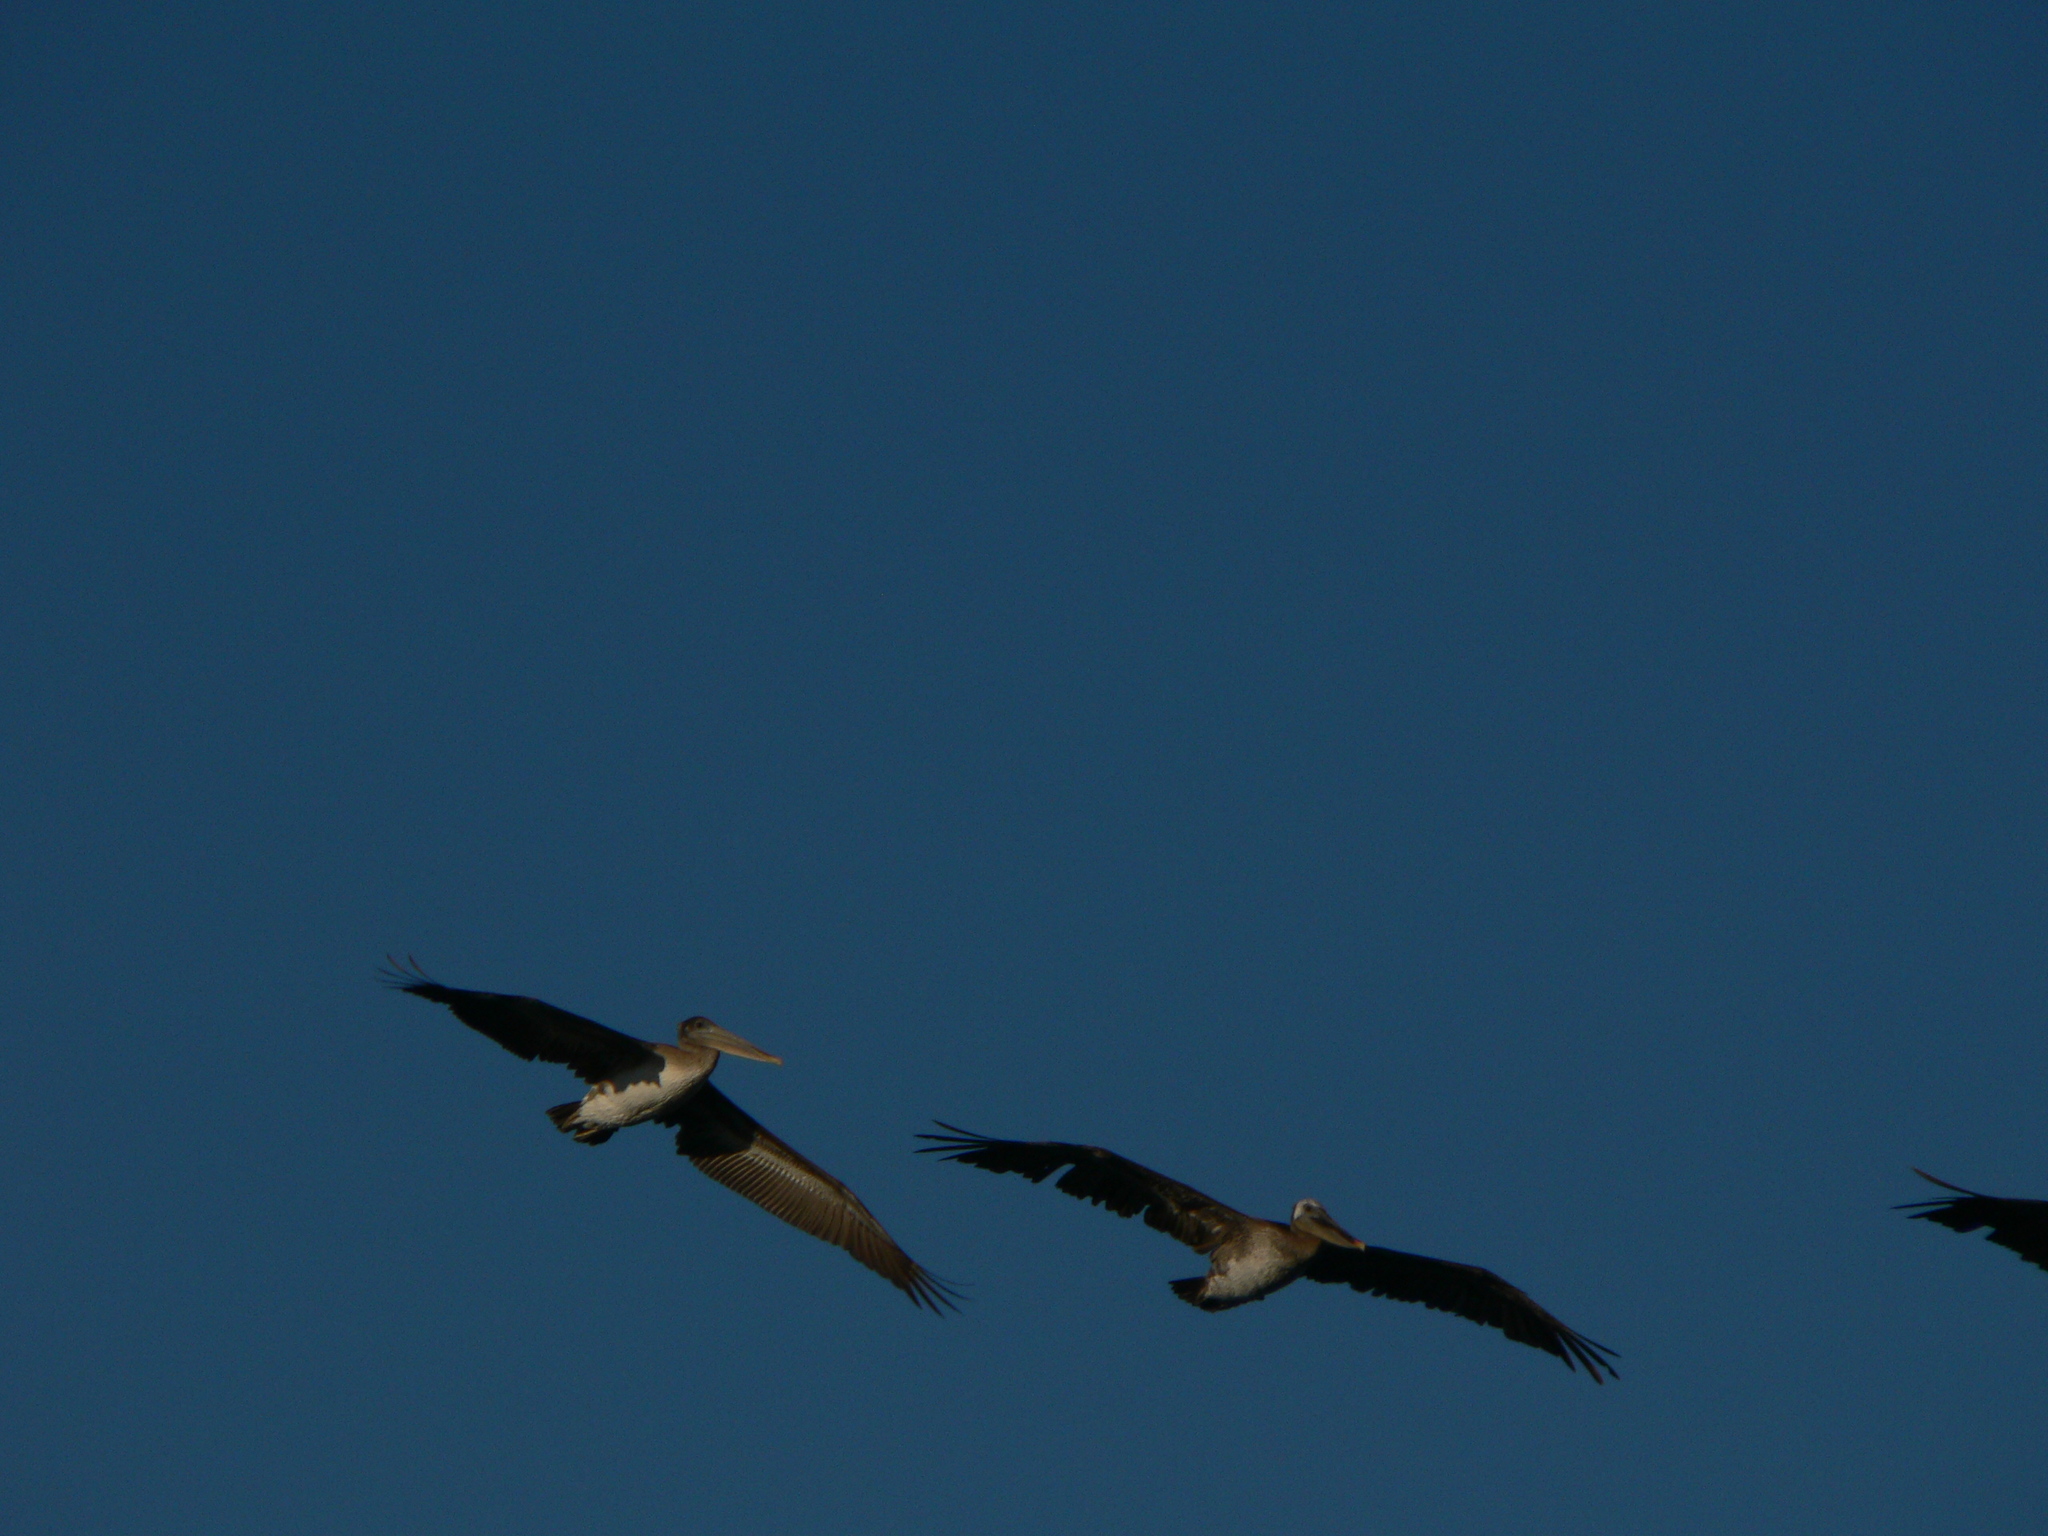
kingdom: Animalia
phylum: Chordata
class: Aves
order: Pelecaniformes
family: Pelecanidae
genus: Pelecanus
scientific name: Pelecanus occidentalis
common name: Brown pelican
